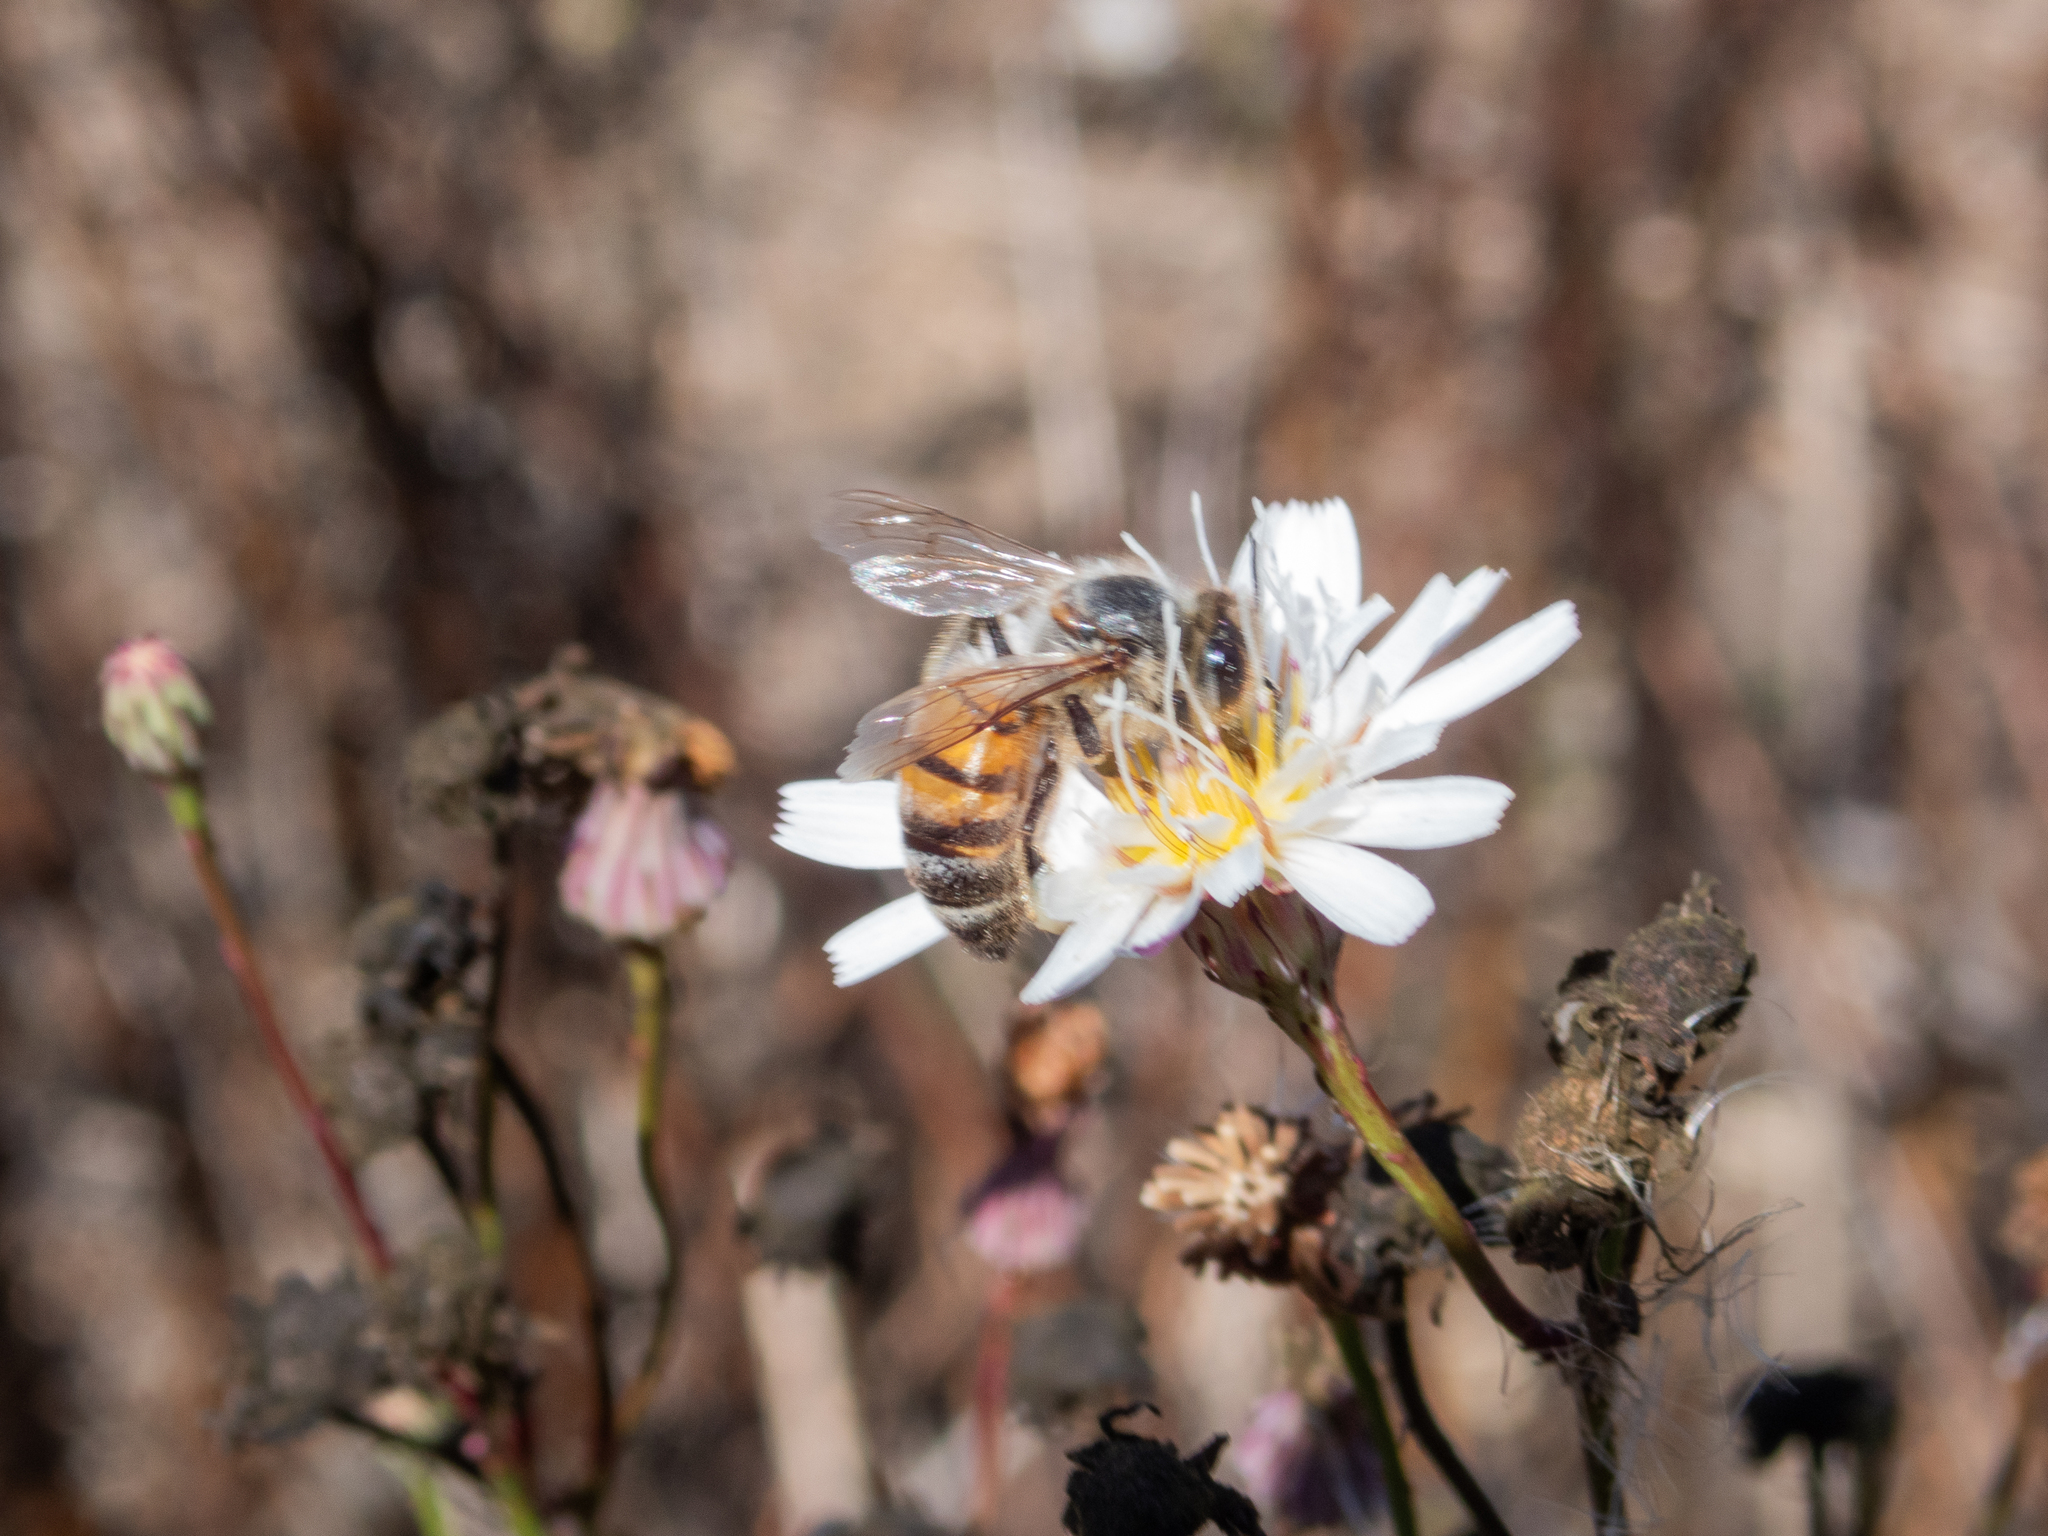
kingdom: Animalia
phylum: Arthropoda
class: Insecta
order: Hymenoptera
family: Apidae
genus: Apis
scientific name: Apis mellifera
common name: Honey bee
